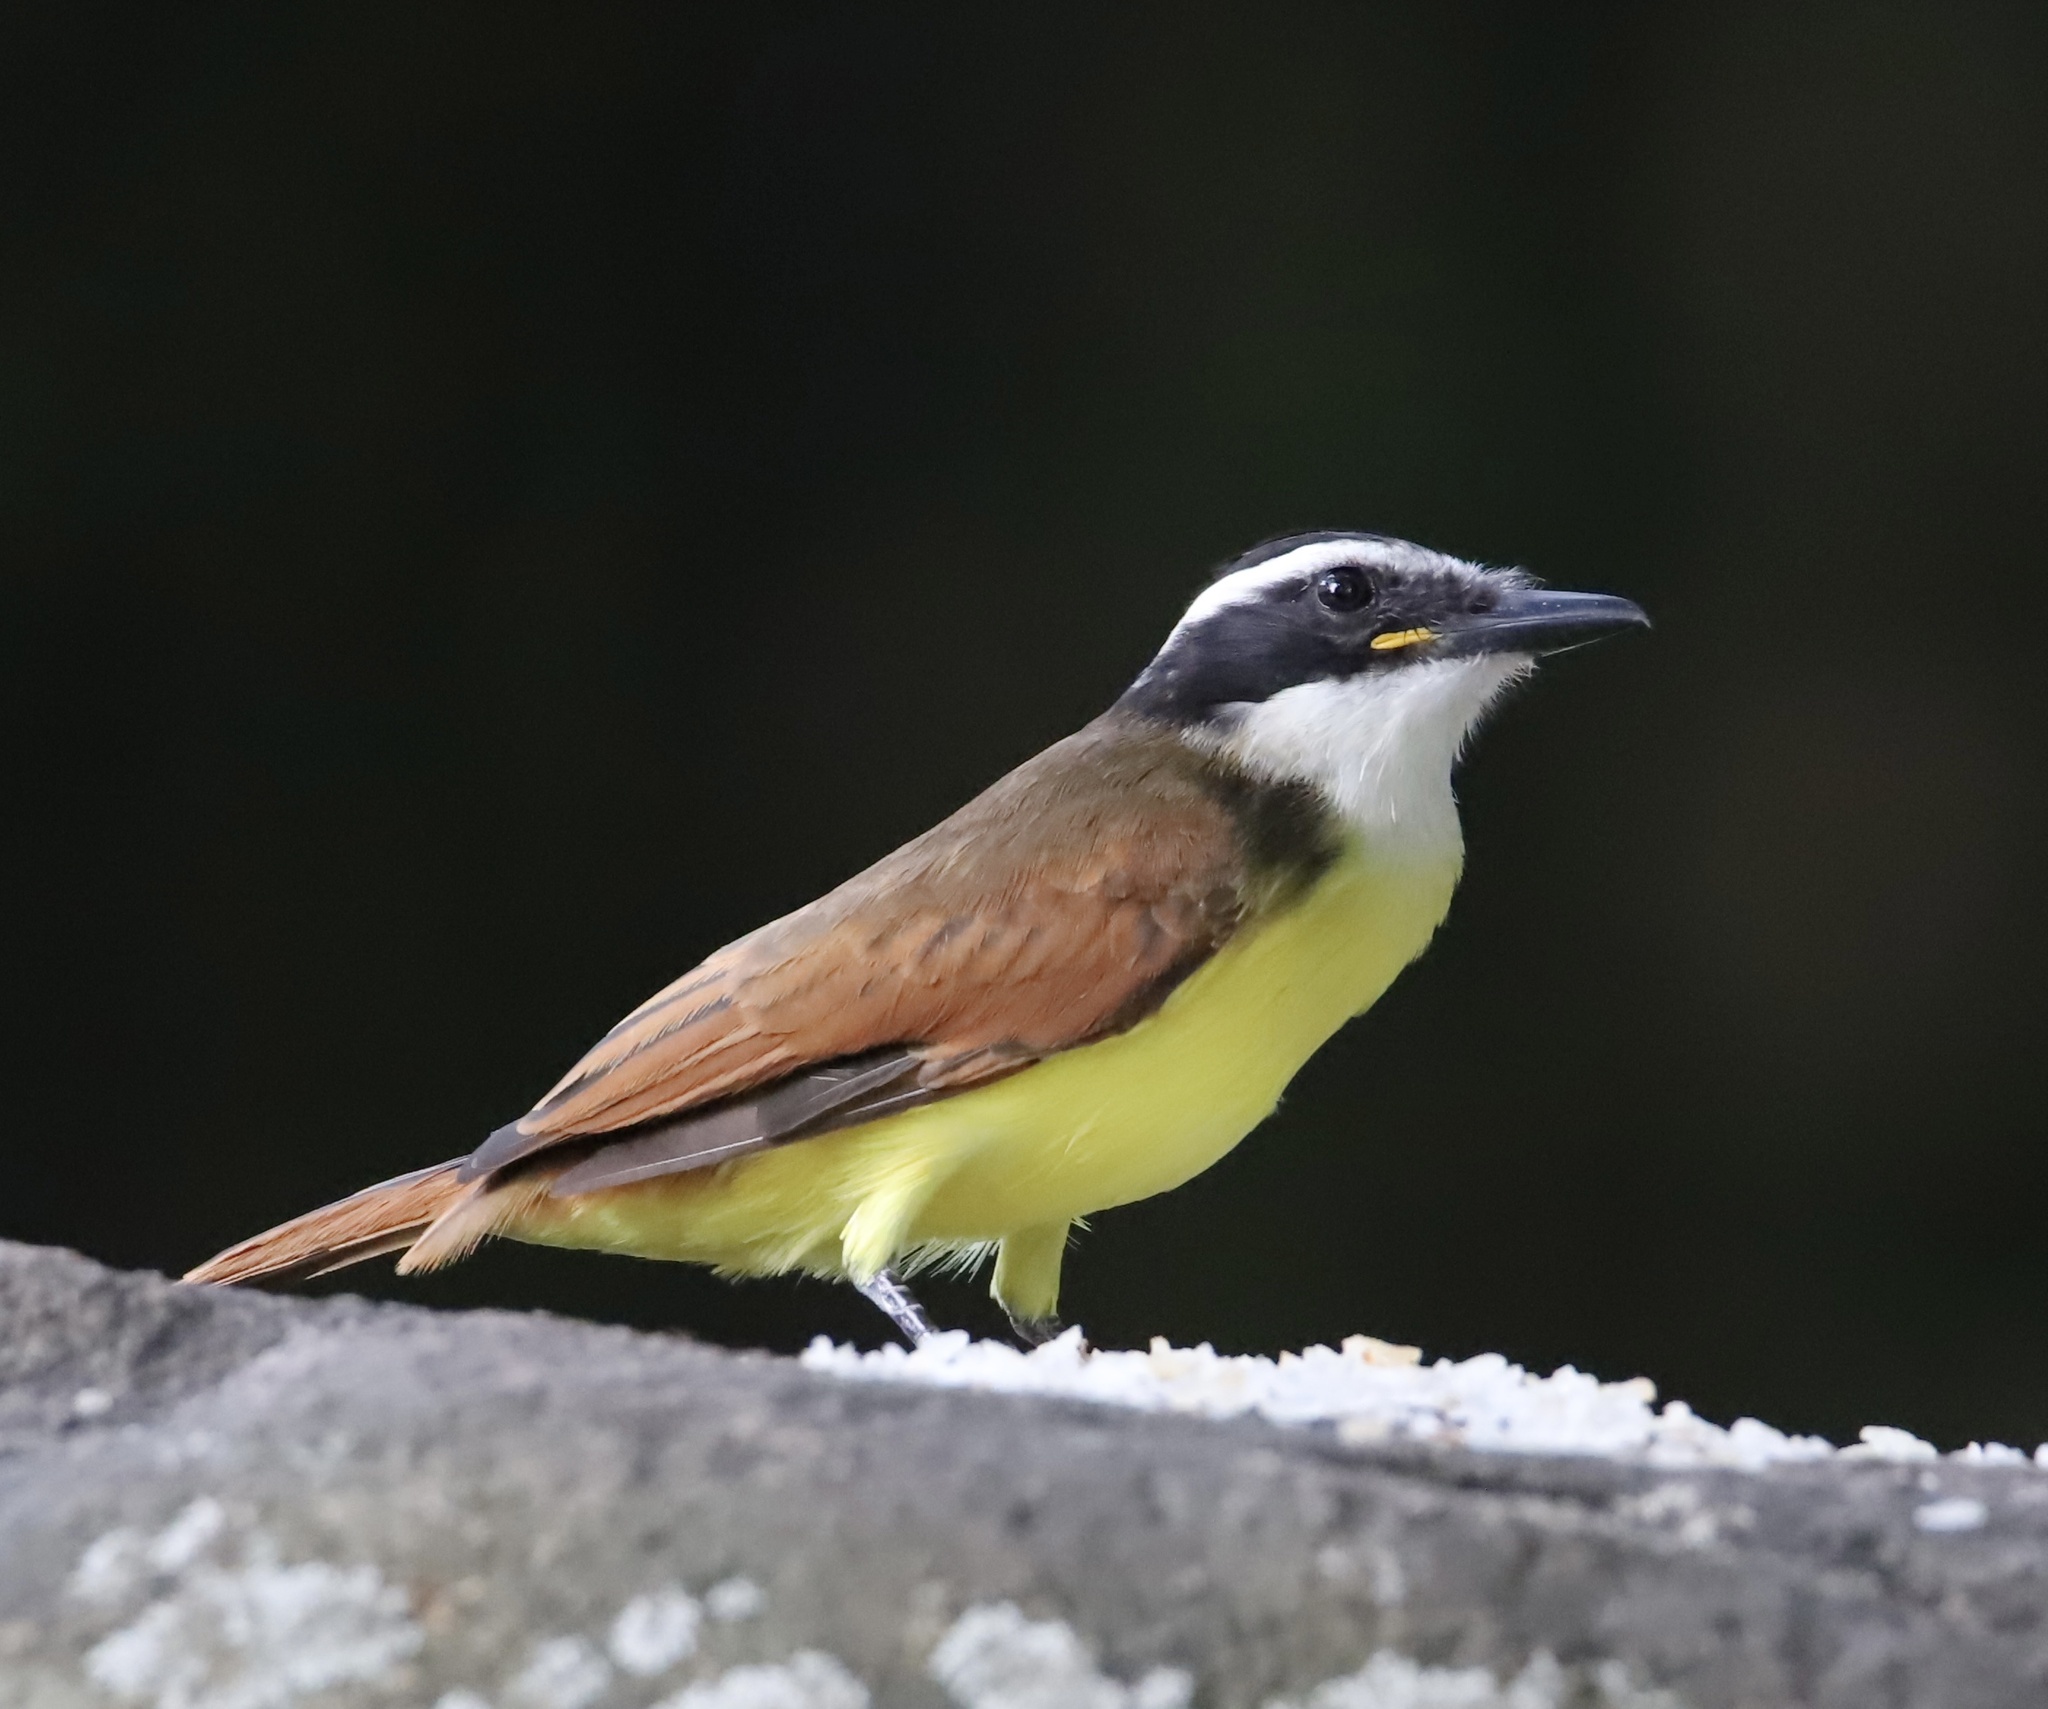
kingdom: Animalia
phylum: Chordata
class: Aves
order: Passeriformes
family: Tyrannidae
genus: Pitangus
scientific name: Pitangus sulphuratus
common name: Great kiskadee
